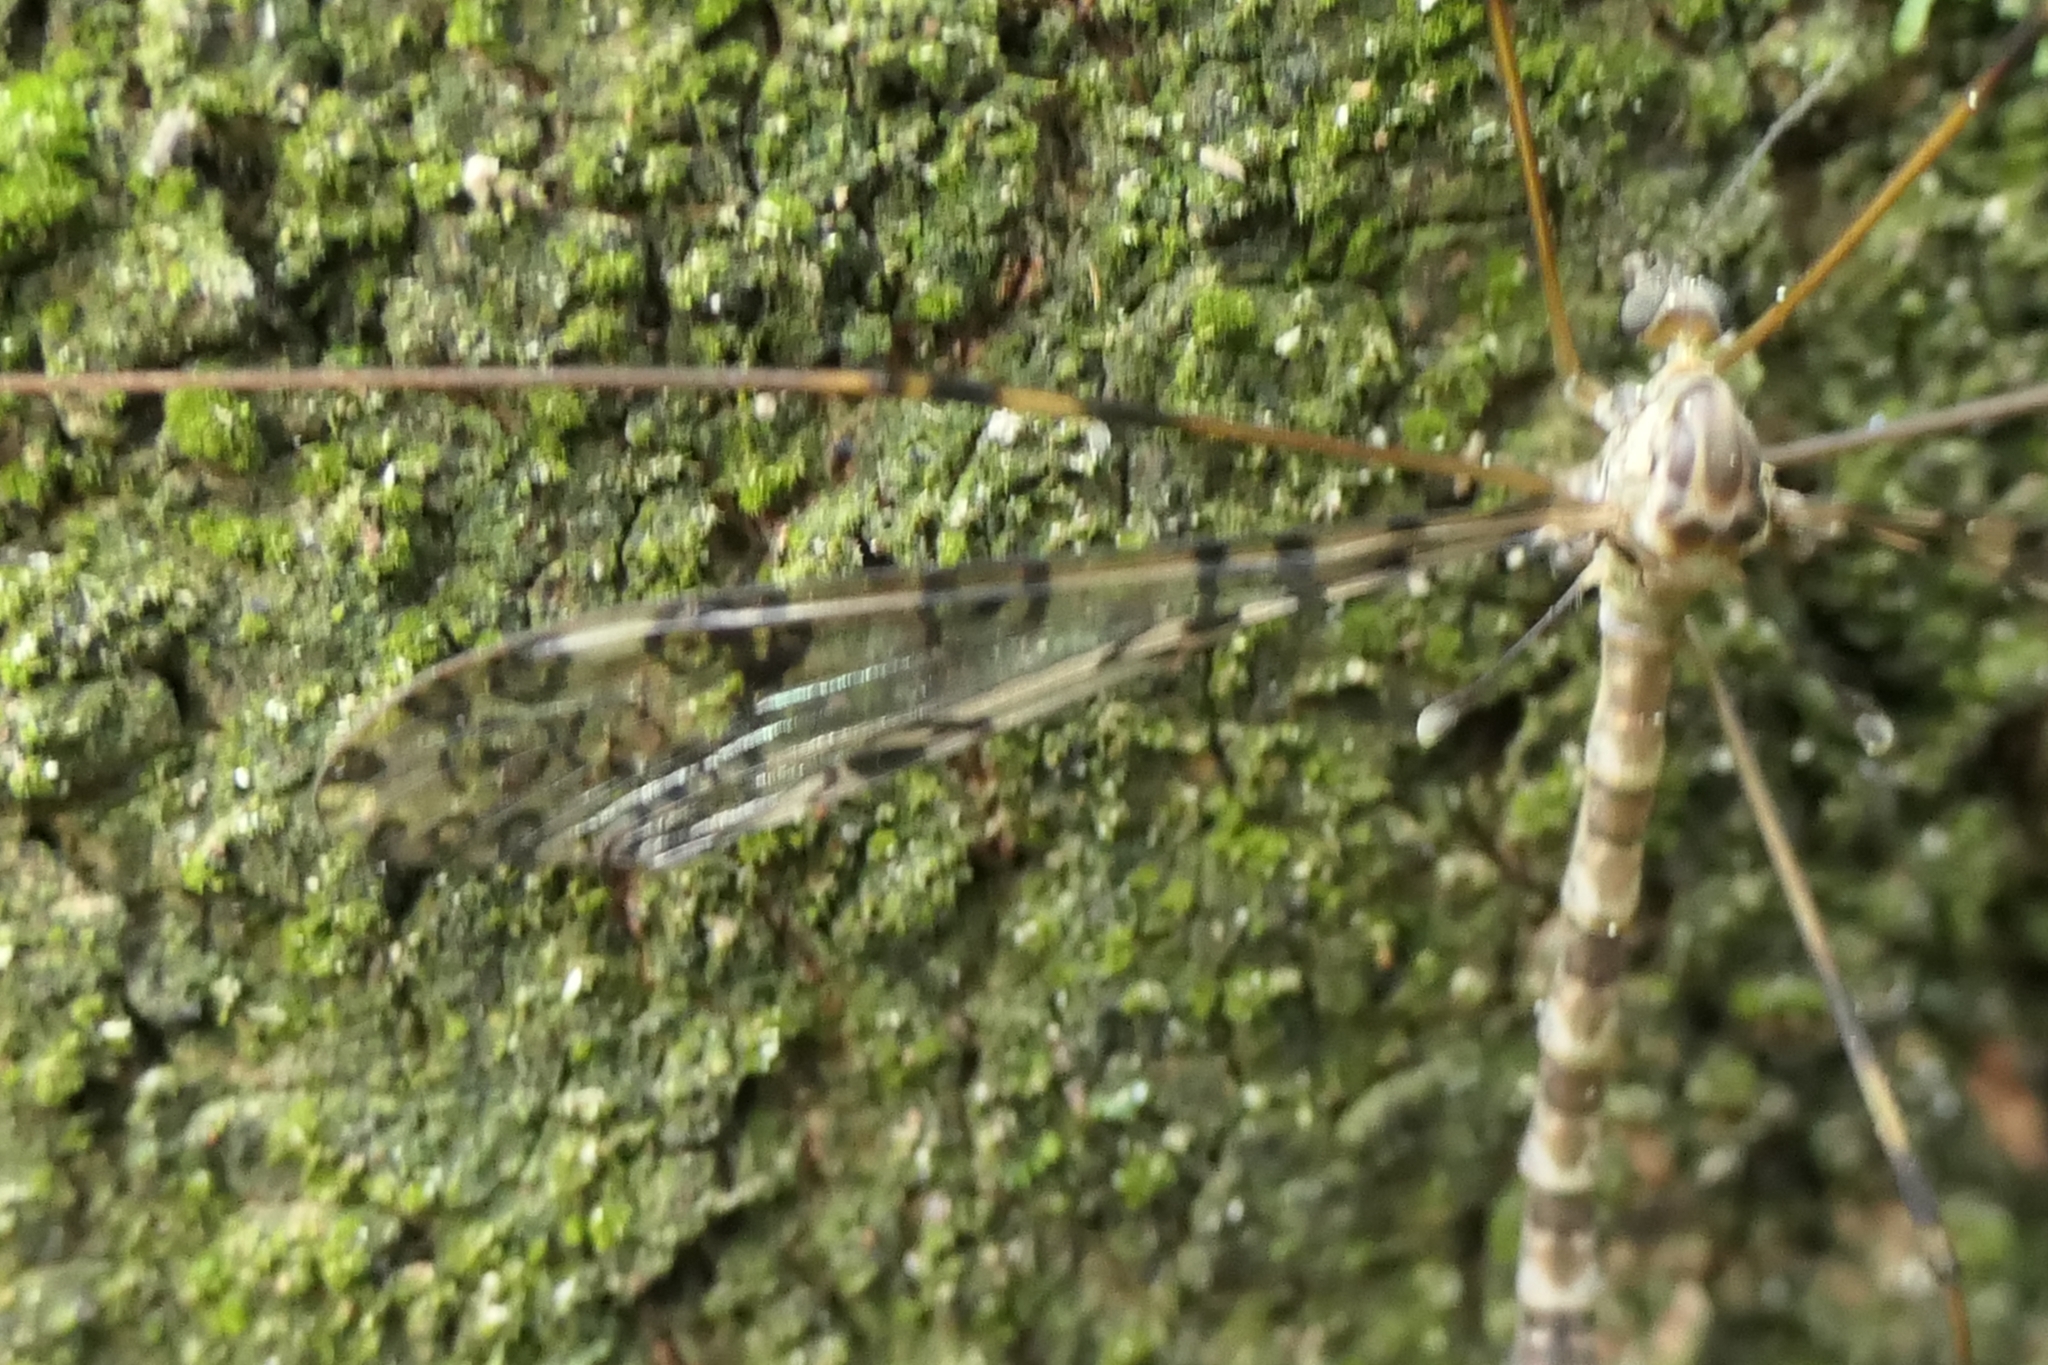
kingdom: Animalia
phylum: Arthropoda
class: Insecta
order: Diptera
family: Limoniidae
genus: Austrolimnophila
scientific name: Austrolimnophila argus
